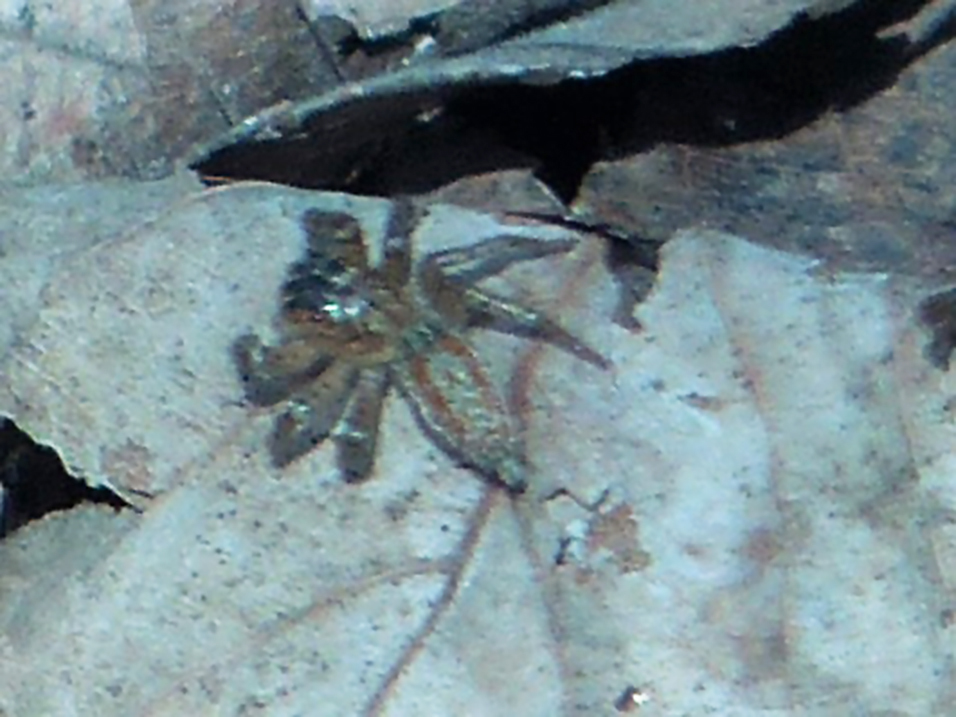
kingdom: Animalia
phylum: Arthropoda
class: Arachnida
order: Araneae
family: Salticidae
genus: Maevia
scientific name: Maevia inclemens
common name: Dimorphic jumper
